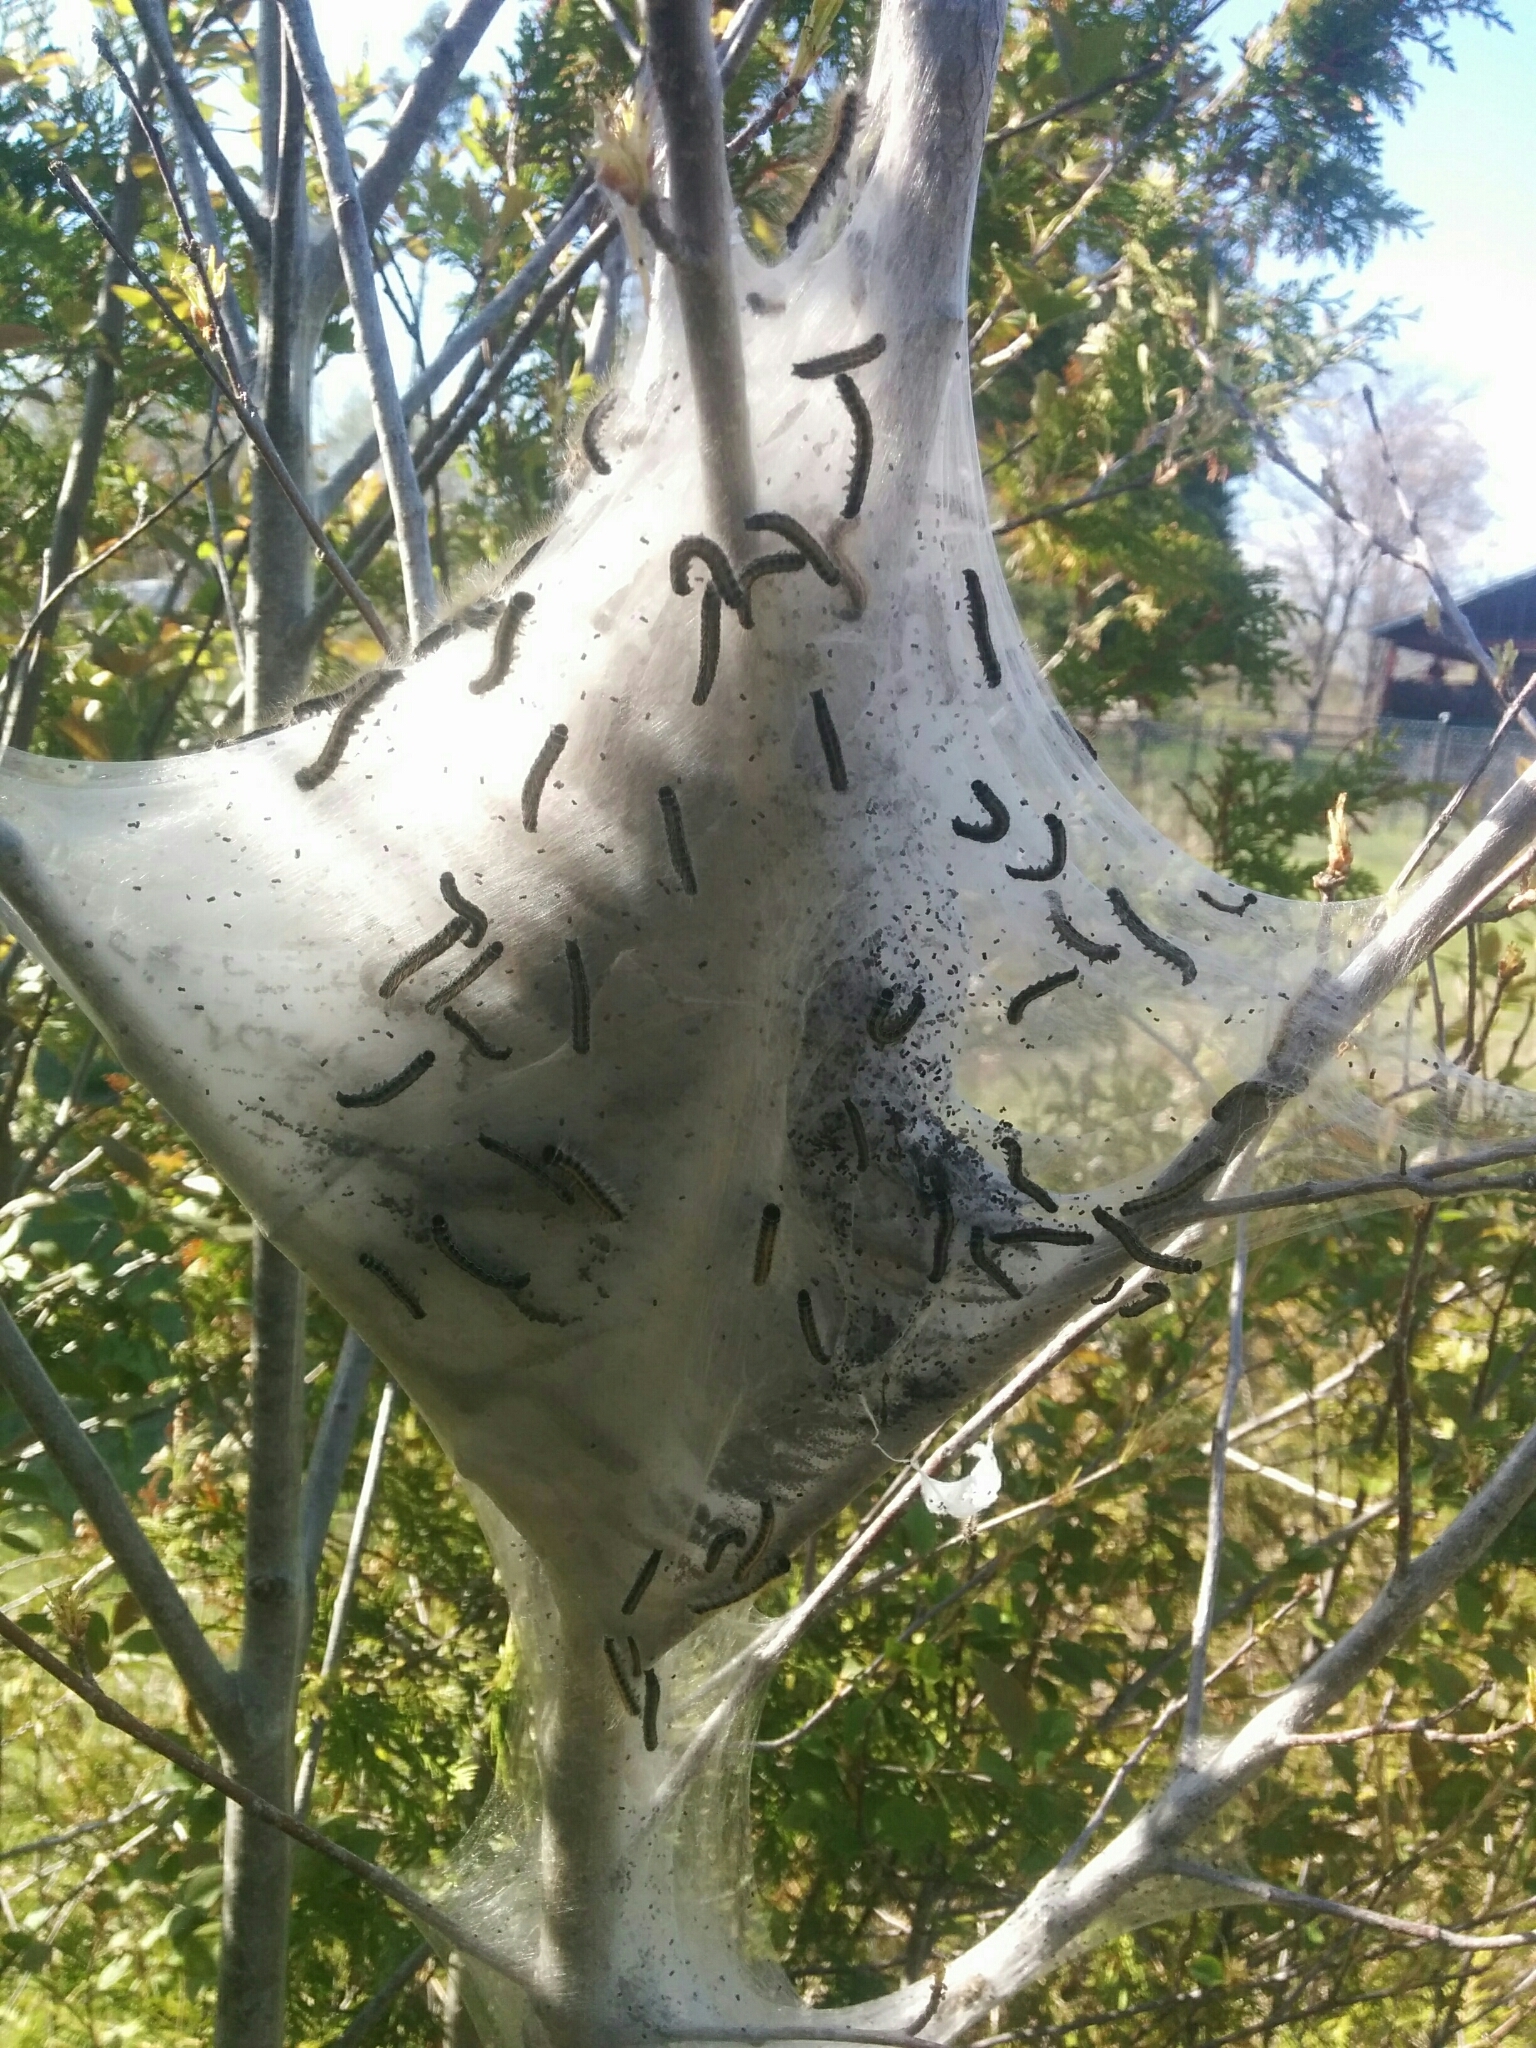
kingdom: Animalia
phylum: Arthropoda
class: Insecta
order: Lepidoptera
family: Lasiocampidae
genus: Malacosoma
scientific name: Malacosoma americana
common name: Eastern tent caterpillar moth
